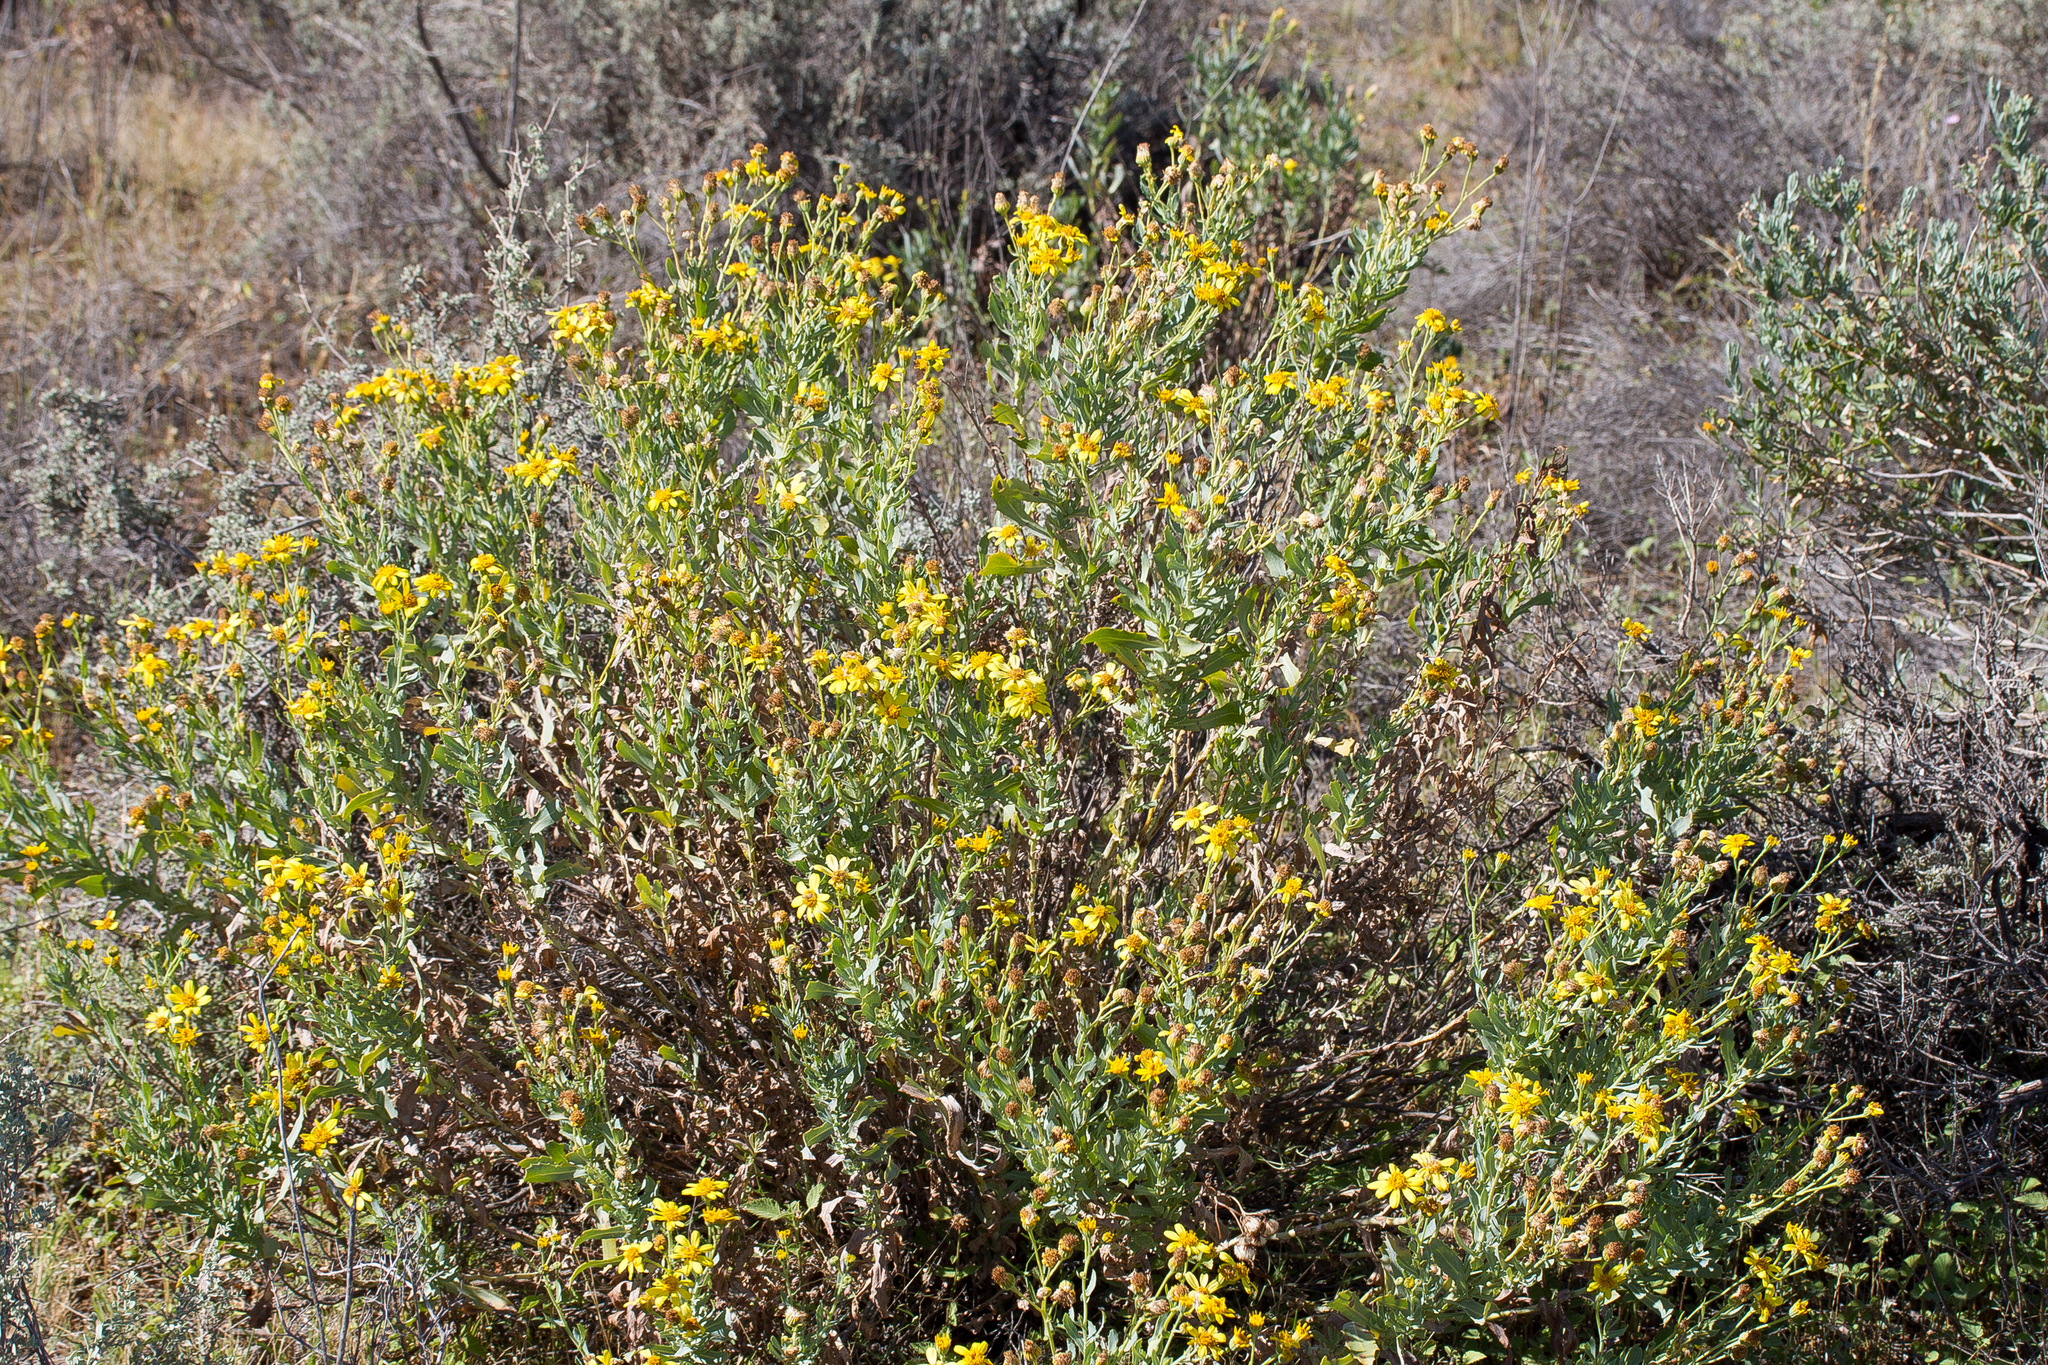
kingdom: Plantae
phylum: Tracheophyta
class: Magnoliopsida
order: Asterales
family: Asteraceae
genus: Senecio
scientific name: Senecio magnificus
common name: Camelweed
